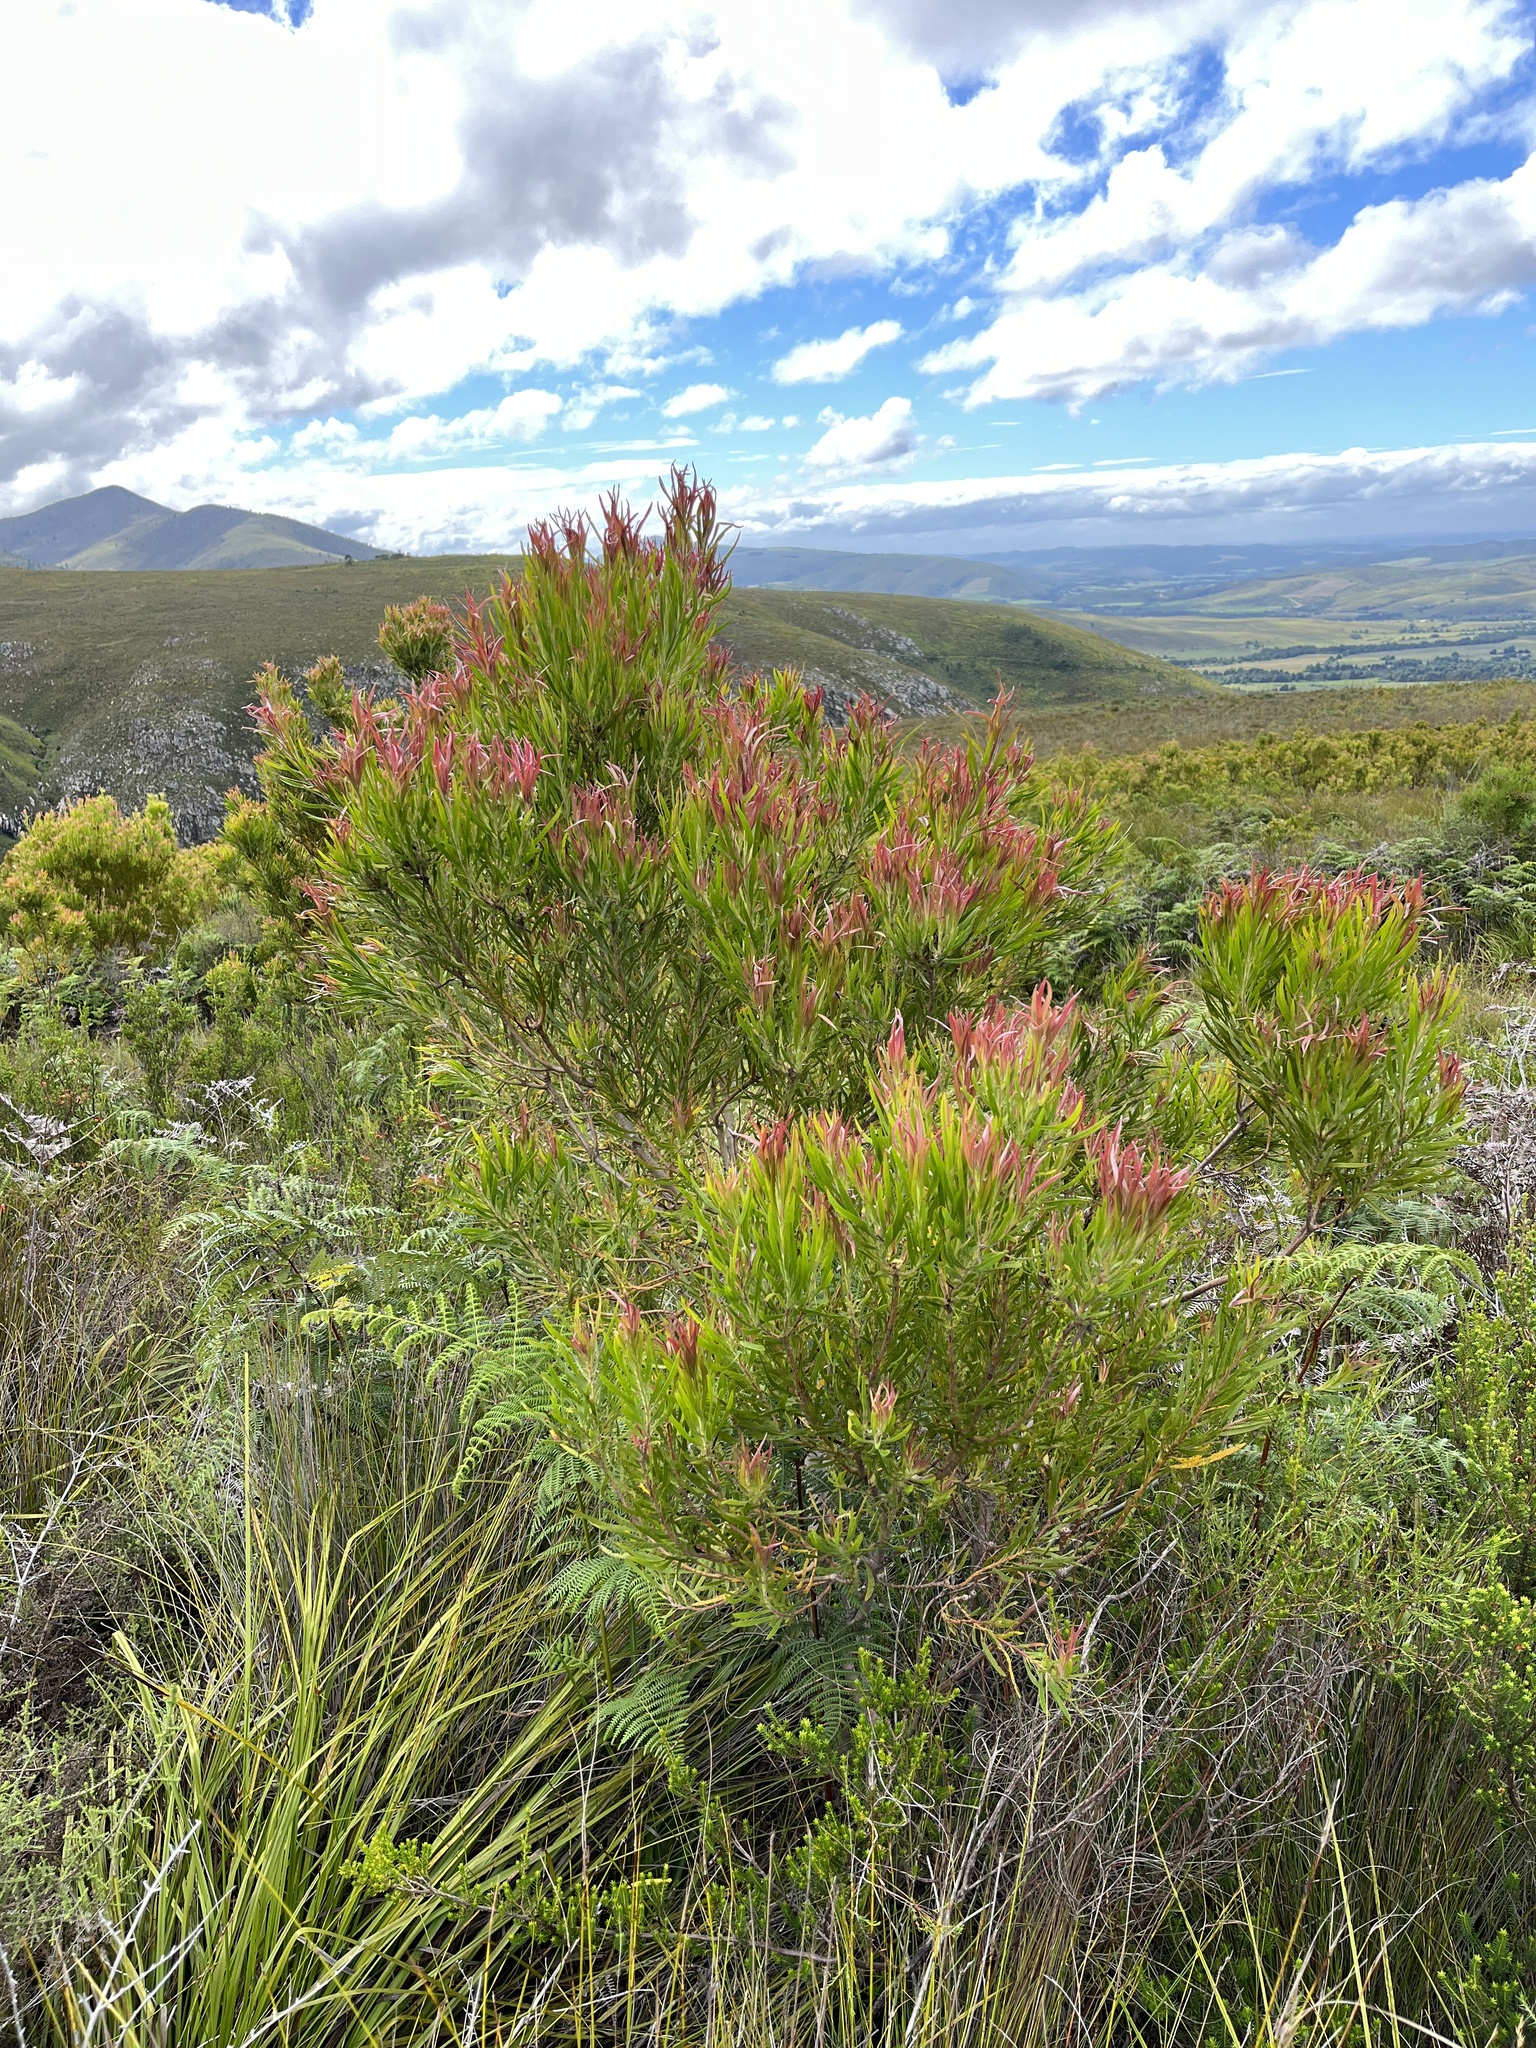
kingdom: Plantae
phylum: Tracheophyta
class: Magnoliopsida
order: Proteales
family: Proteaceae
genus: Leucadendron
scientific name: Leucadendron eucalyptifolium
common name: Gum-leaved conebush
